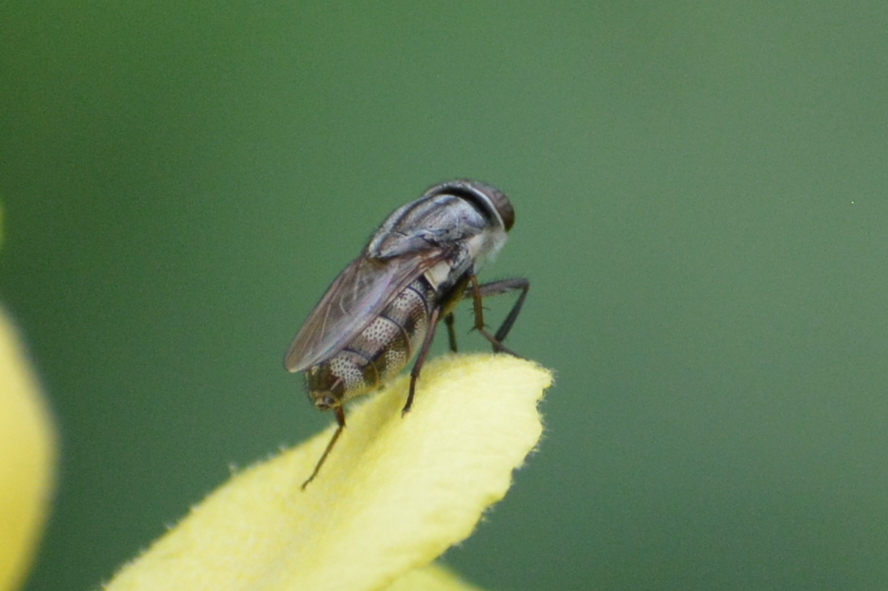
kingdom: Animalia
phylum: Arthropoda
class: Insecta
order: Diptera
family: Calliphoridae
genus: Stomorhina
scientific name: Stomorhina lunata
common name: Locust blowfly
